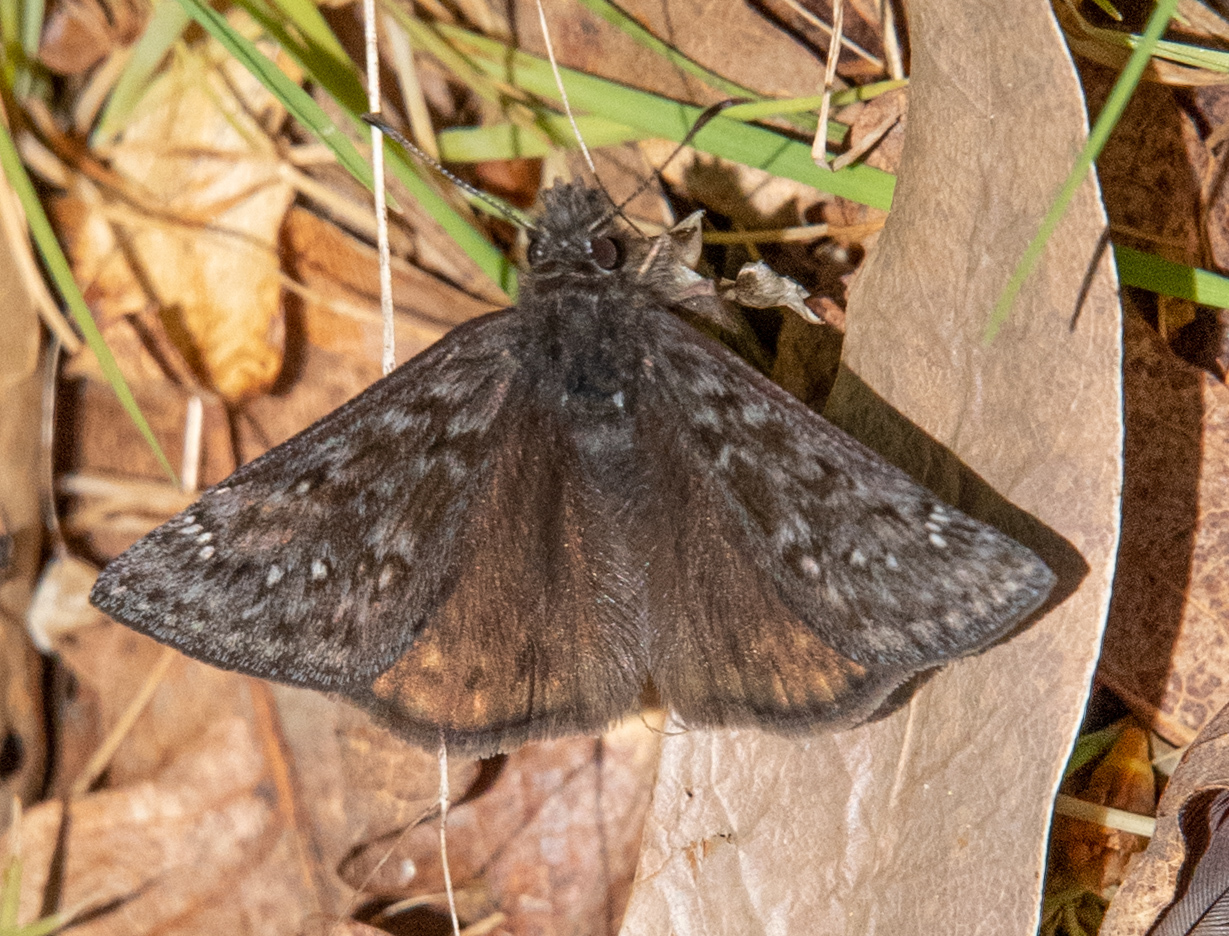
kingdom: Animalia
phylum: Arthropoda
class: Insecta
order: Lepidoptera
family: Hesperiidae
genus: Erynnis
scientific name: Erynnis propertius
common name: Propertius duskywing
